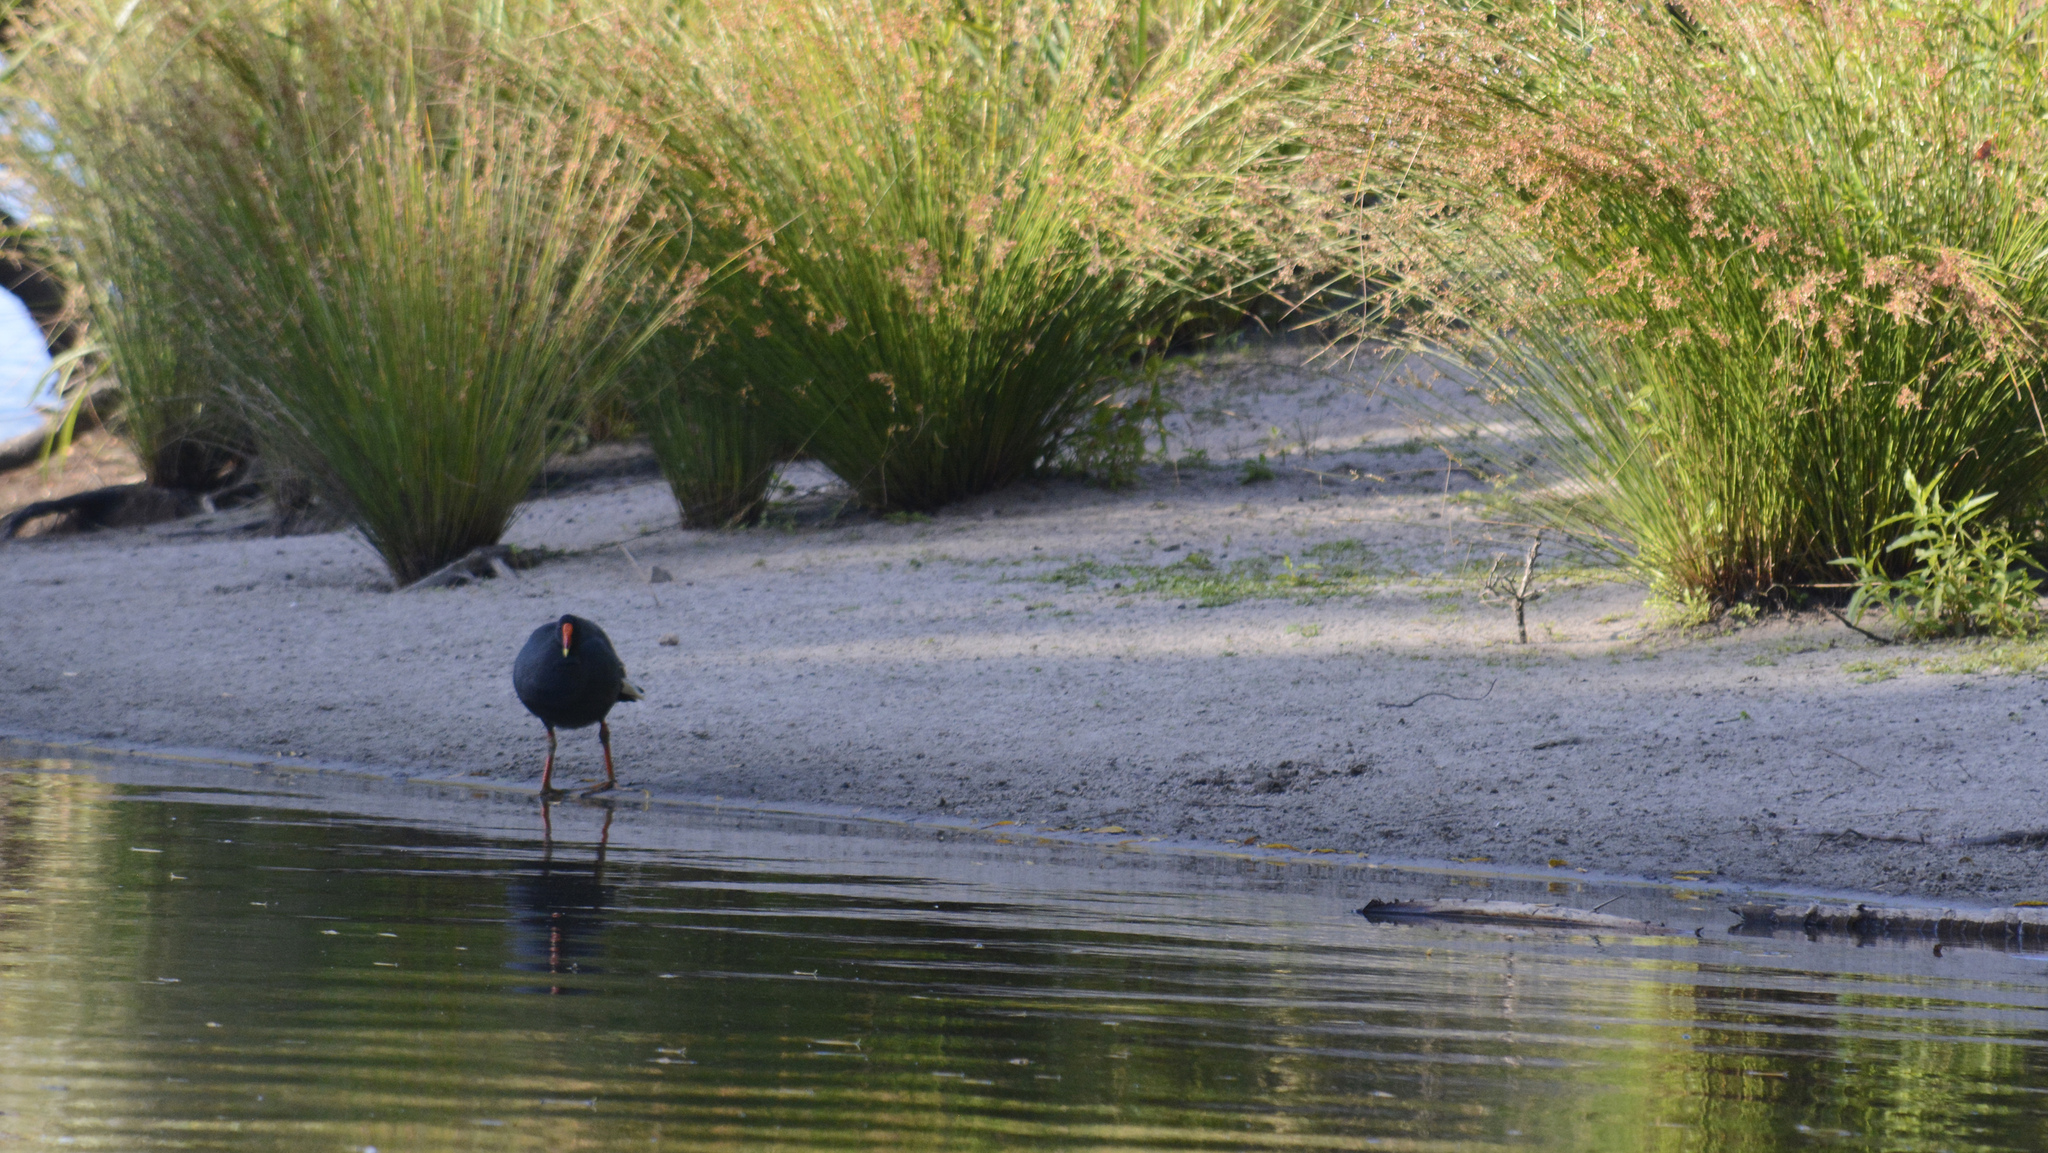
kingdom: Animalia
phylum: Chordata
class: Aves
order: Gruiformes
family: Rallidae
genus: Gallinula
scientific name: Gallinula tenebrosa
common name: Dusky moorhen
